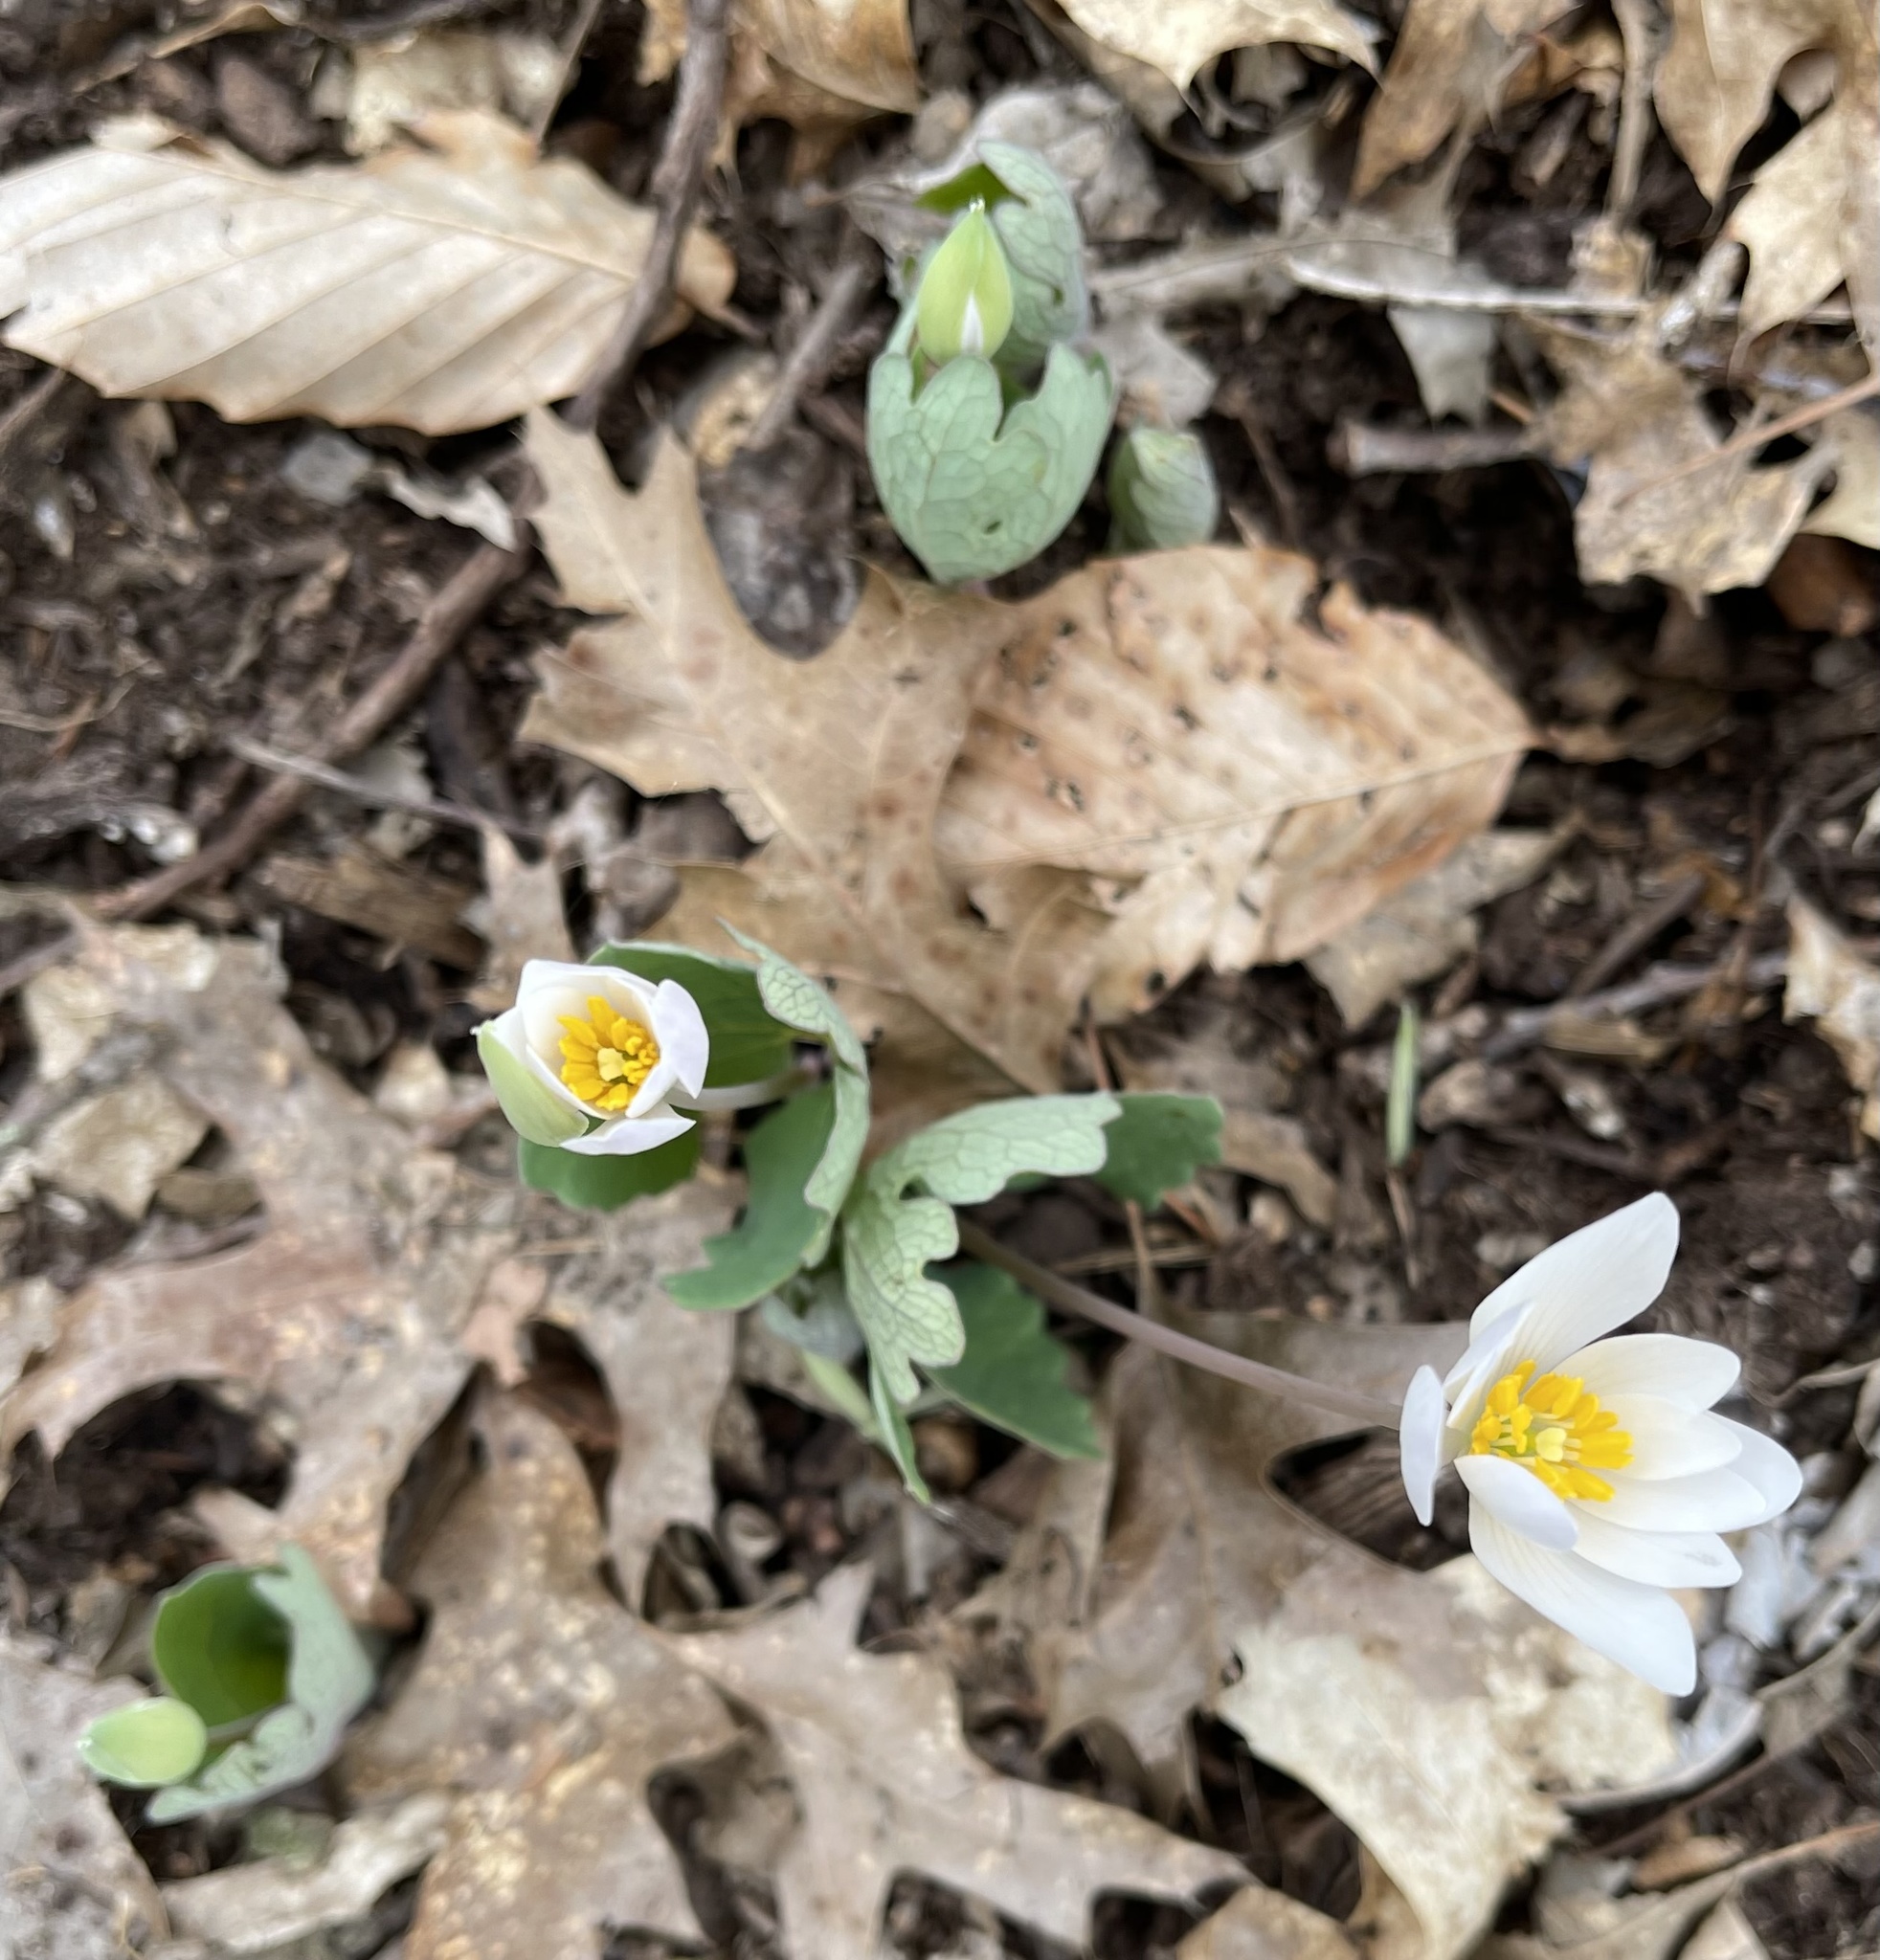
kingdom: Plantae
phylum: Tracheophyta
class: Magnoliopsida
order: Ranunculales
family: Papaveraceae
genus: Sanguinaria
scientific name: Sanguinaria canadensis
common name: Bloodroot
